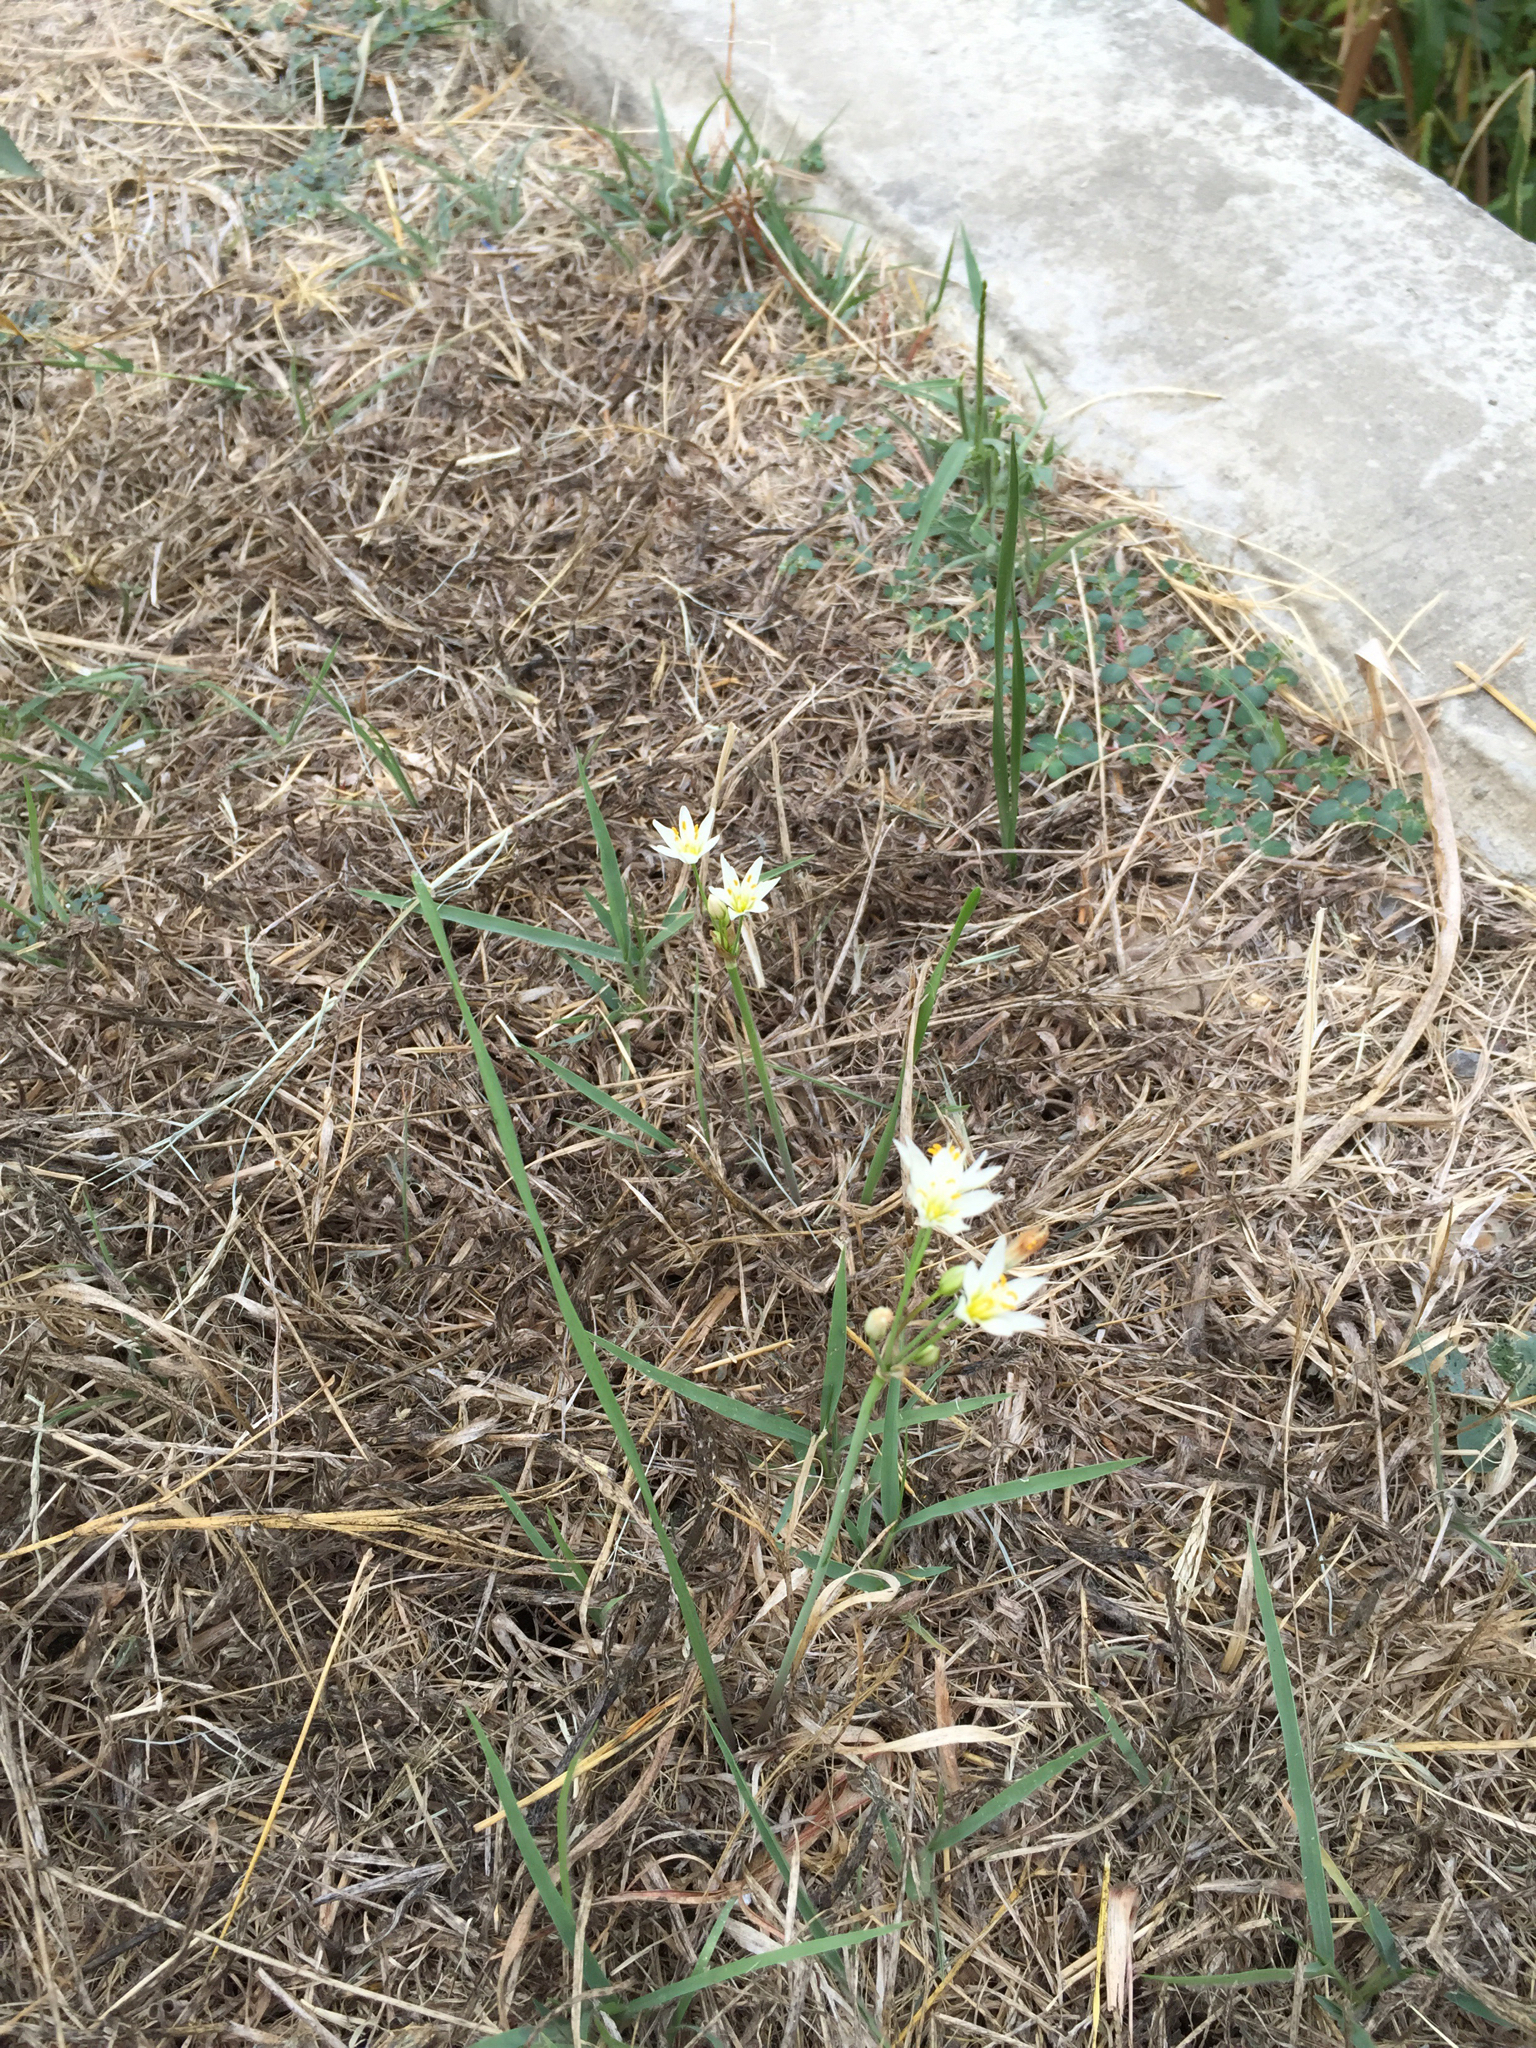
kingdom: Plantae
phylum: Tracheophyta
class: Liliopsida
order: Asparagales
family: Amaryllidaceae
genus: Nothoscordum
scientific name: Nothoscordum bivalve
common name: Crow-poison
